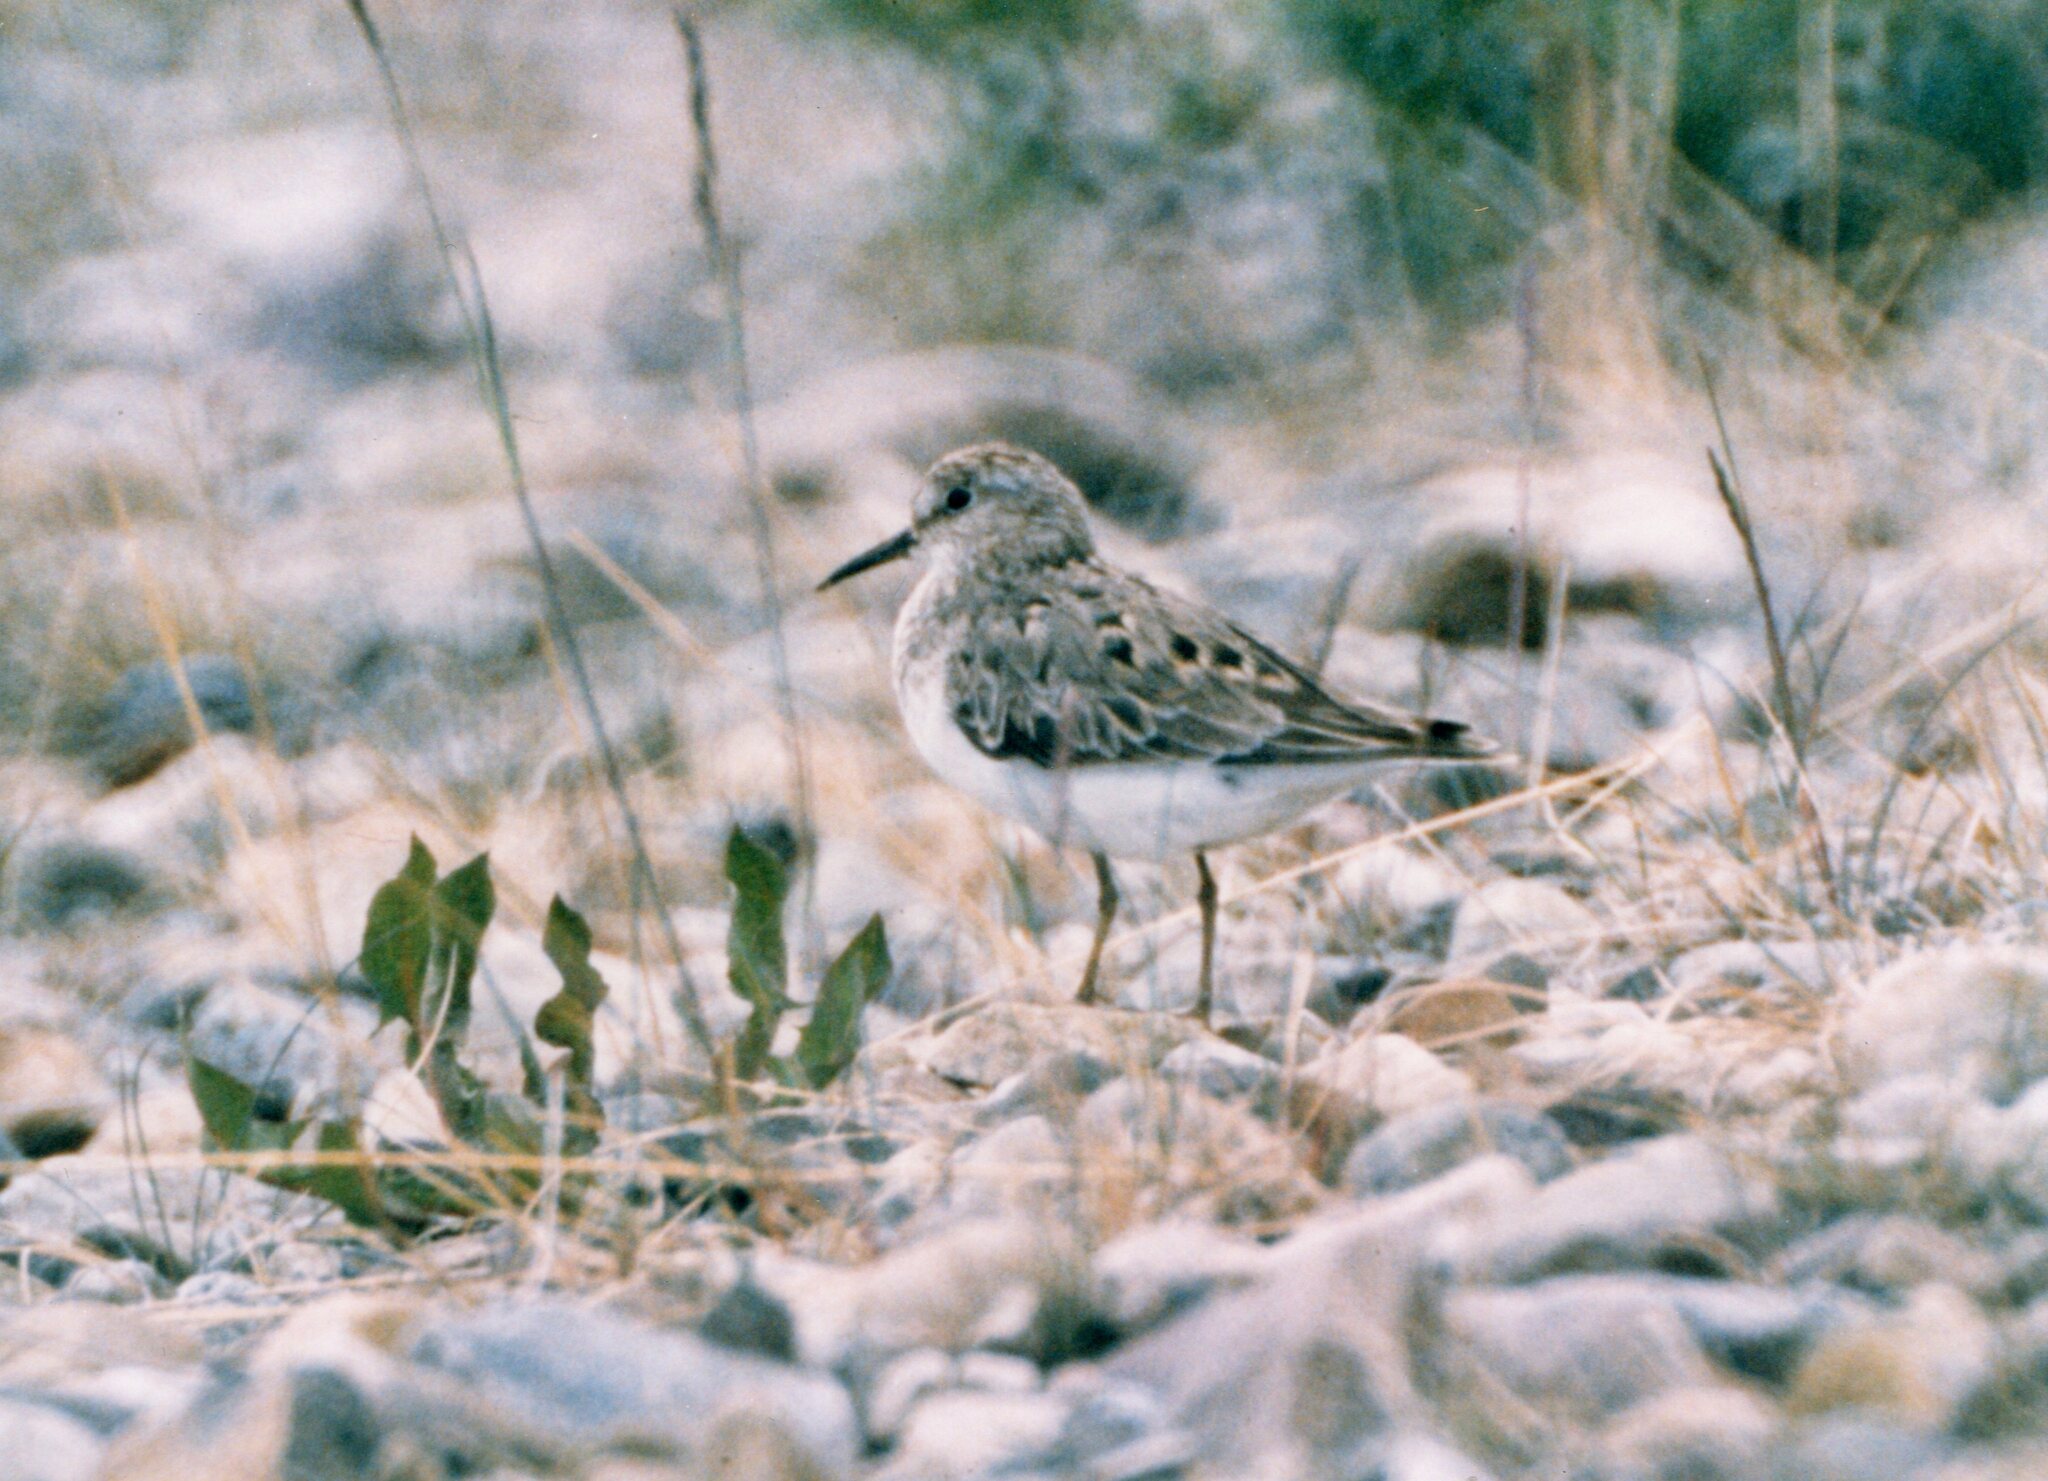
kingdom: Animalia
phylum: Chordata
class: Aves
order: Charadriiformes
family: Scolopacidae
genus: Calidris
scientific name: Calidris temminckii
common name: Temminck's stint
